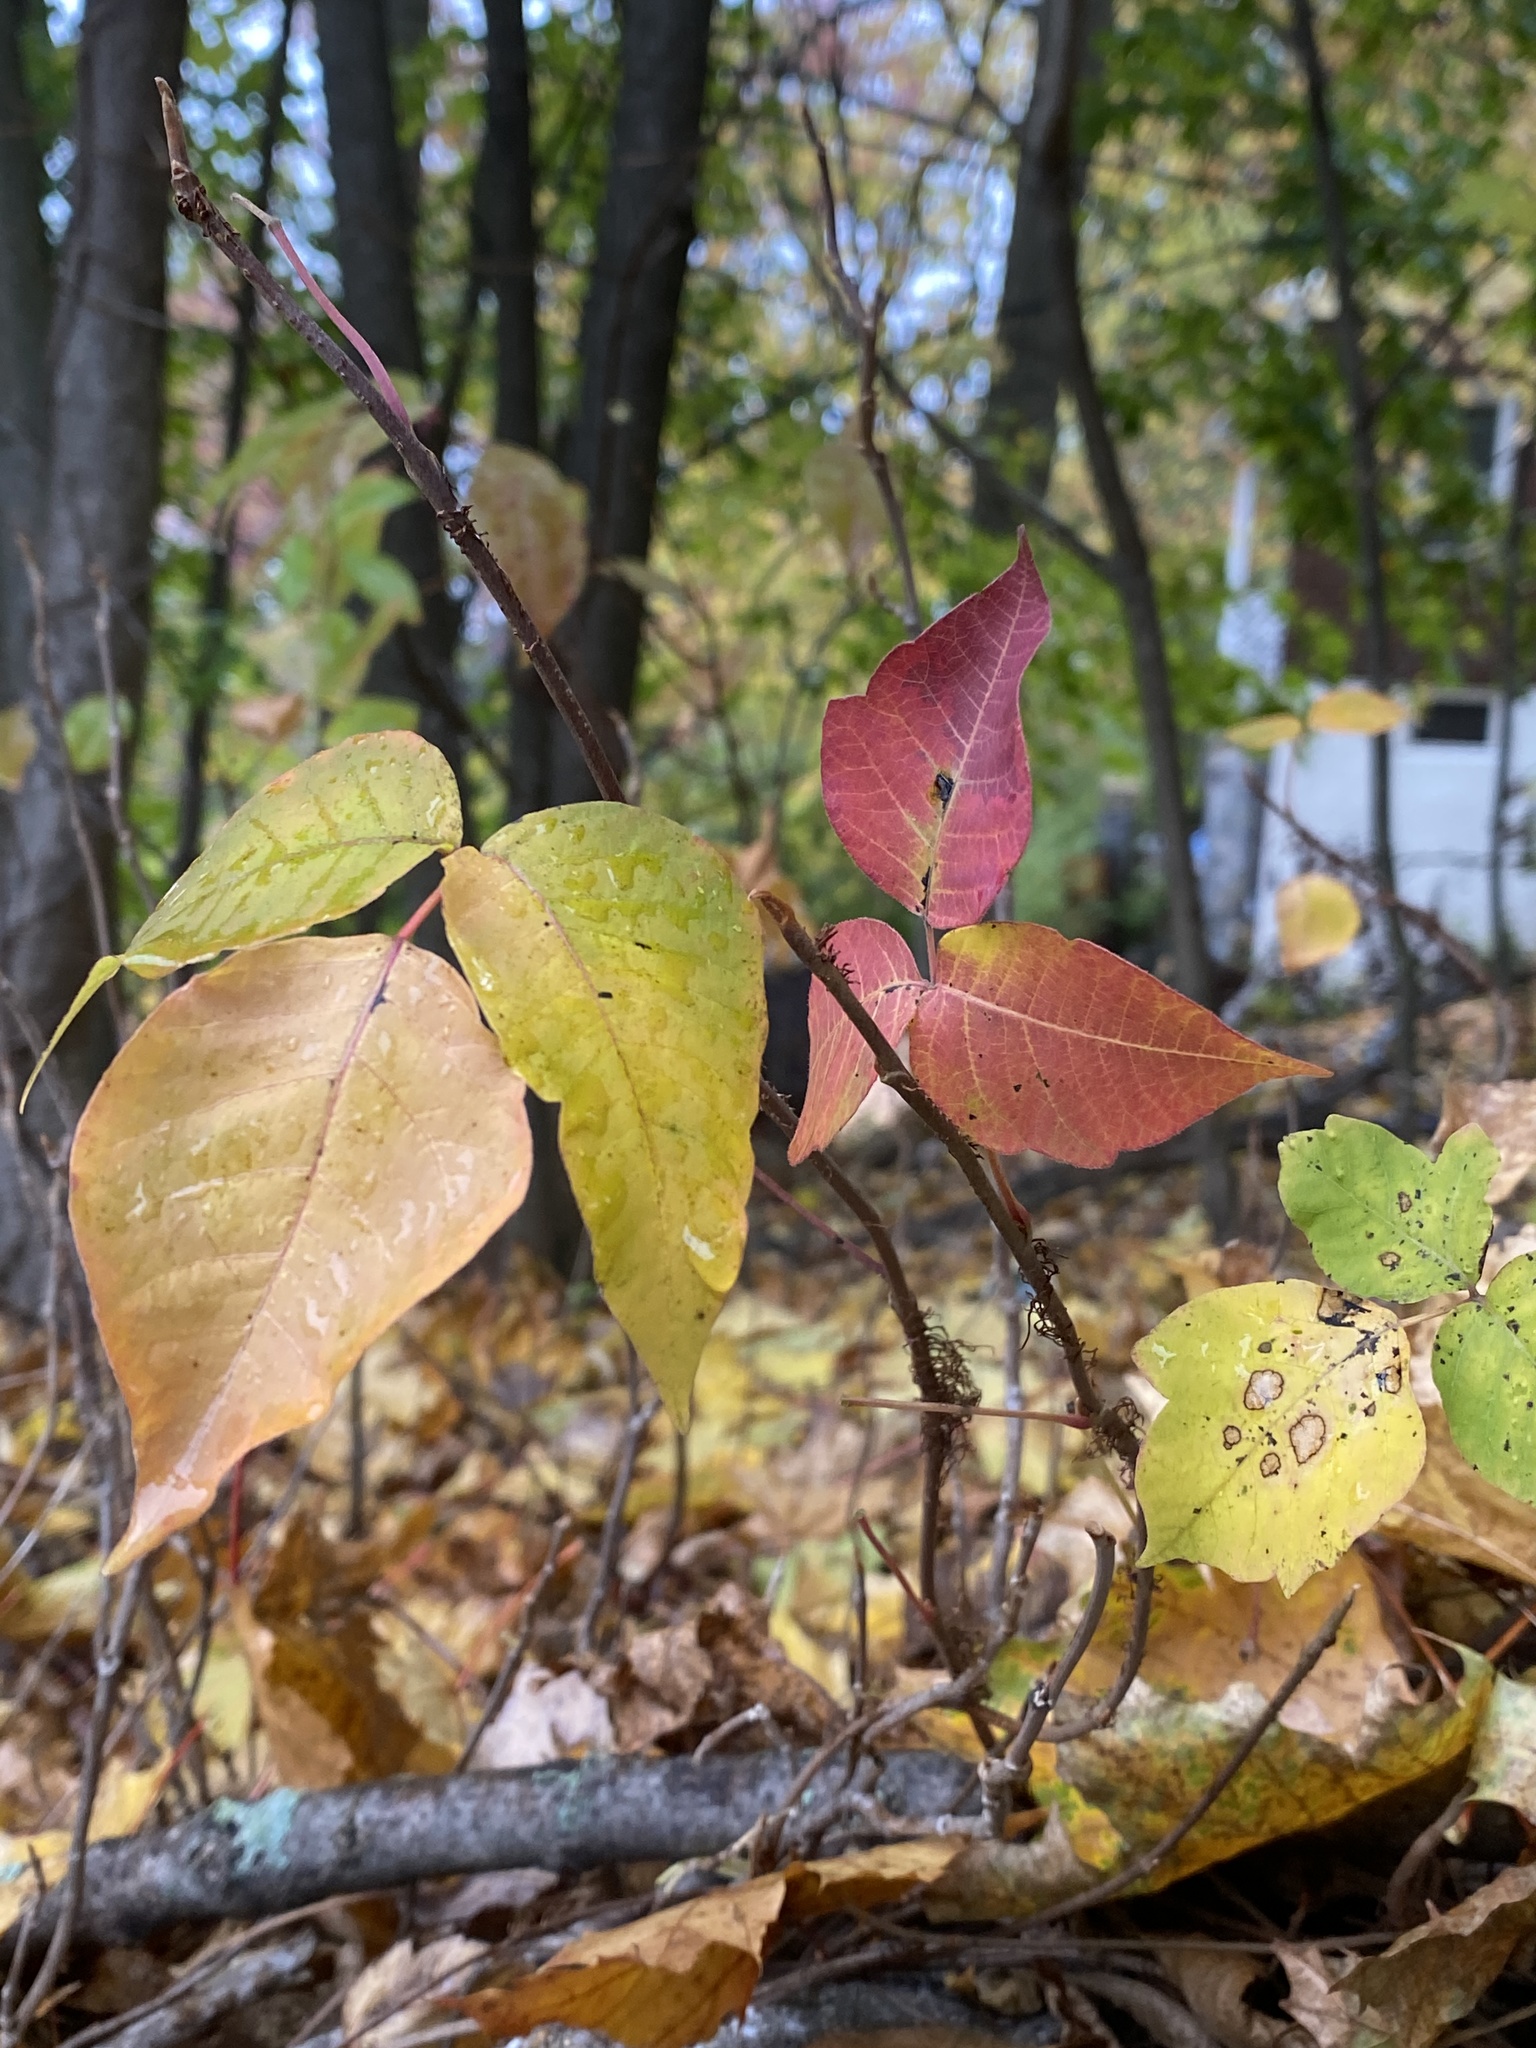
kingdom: Plantae
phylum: Tracheophyta
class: Magnoliopsida
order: Sapindales
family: Anacardiaceae
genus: Toxicodendron
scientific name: Toxicodendron radicans
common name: Poison ivy
